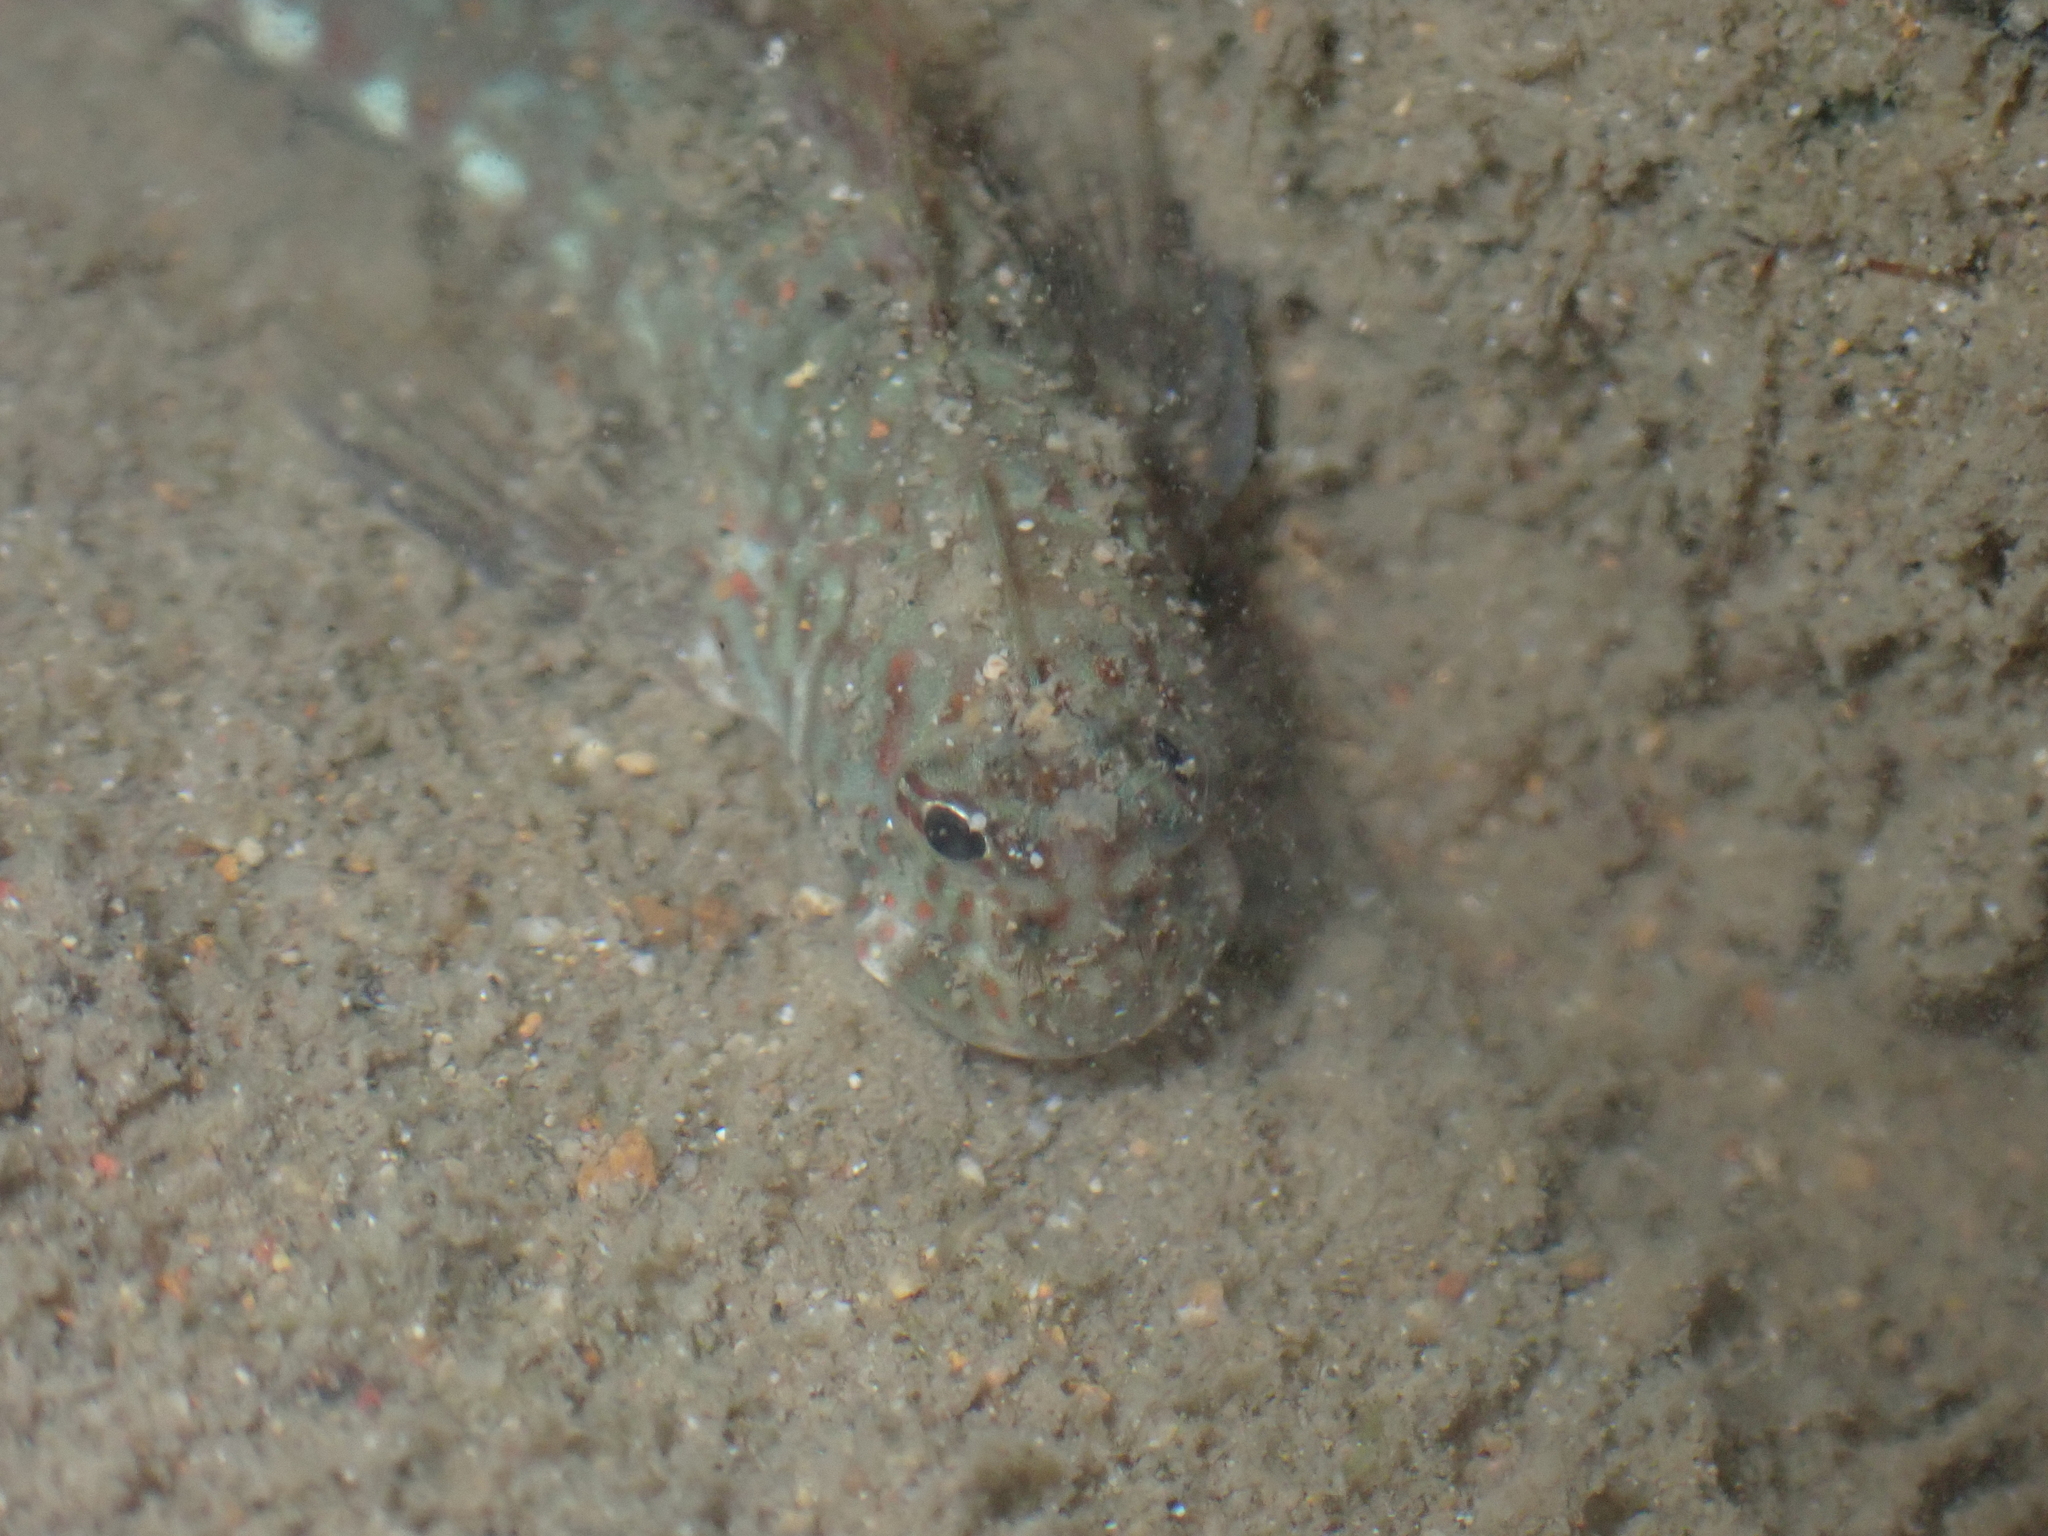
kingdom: Animalia
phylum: Chordata
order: Perciformes
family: Blenniidae
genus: Istiblennius
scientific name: Istiblennius dussumieri
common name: Dussumier's rockskipper
